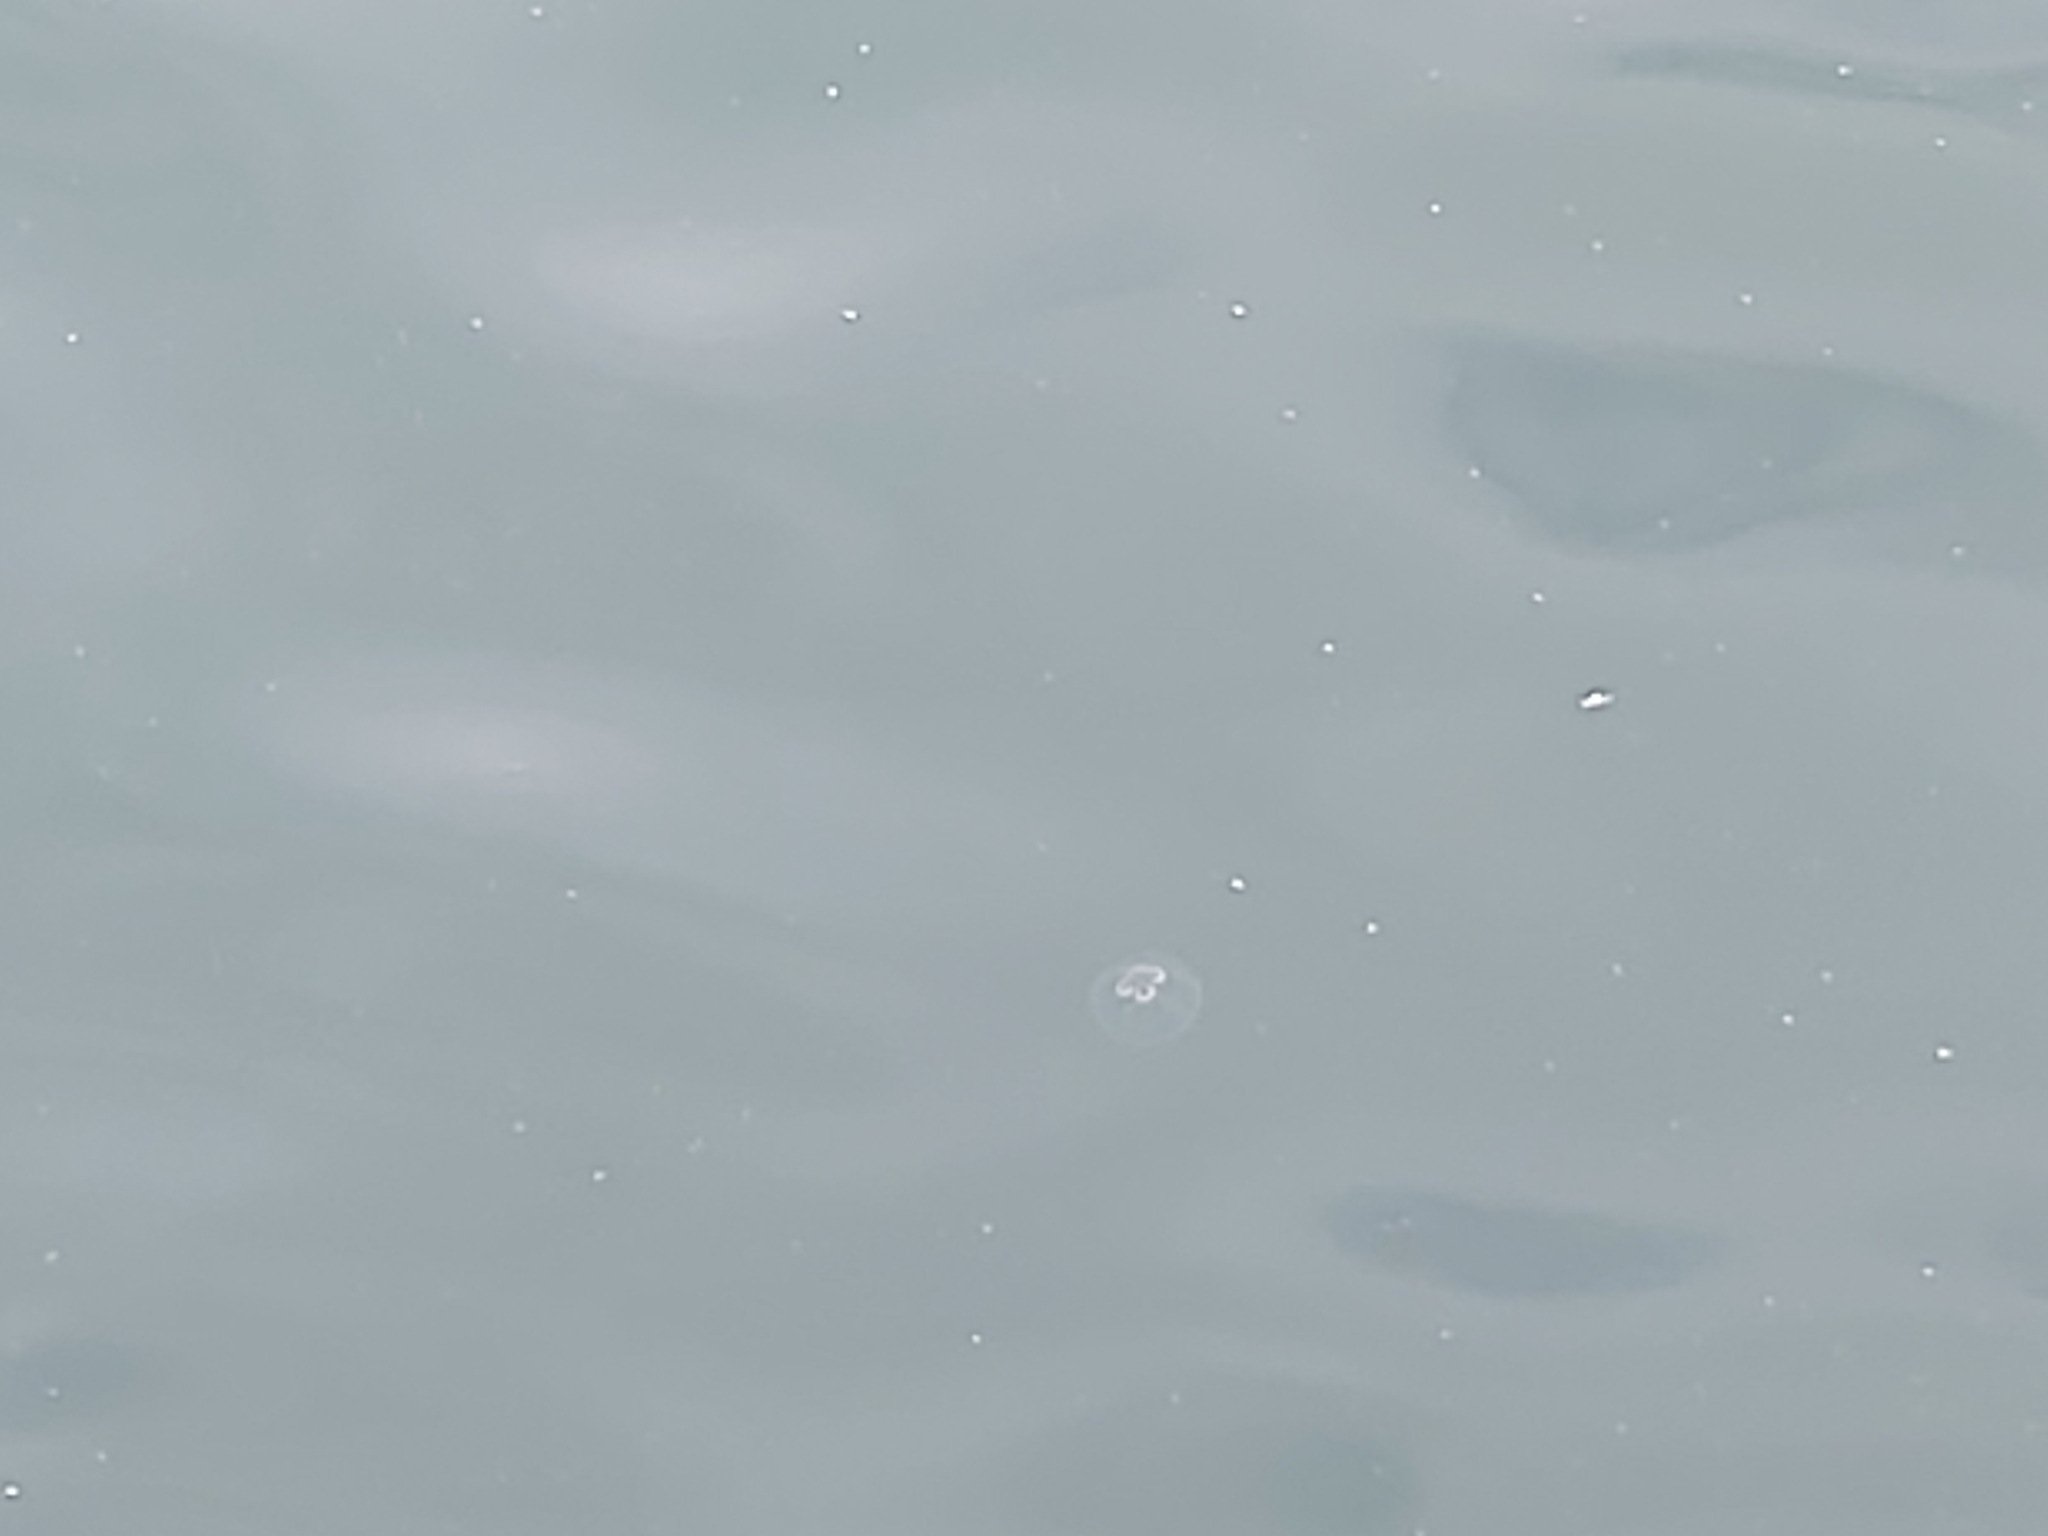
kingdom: Animalia
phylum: Cnidaria
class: Scyphozoa
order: Semaeostomeae
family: Ulmaridae
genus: Aurelia
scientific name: Aurelia aurita
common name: Moon jellyfish
